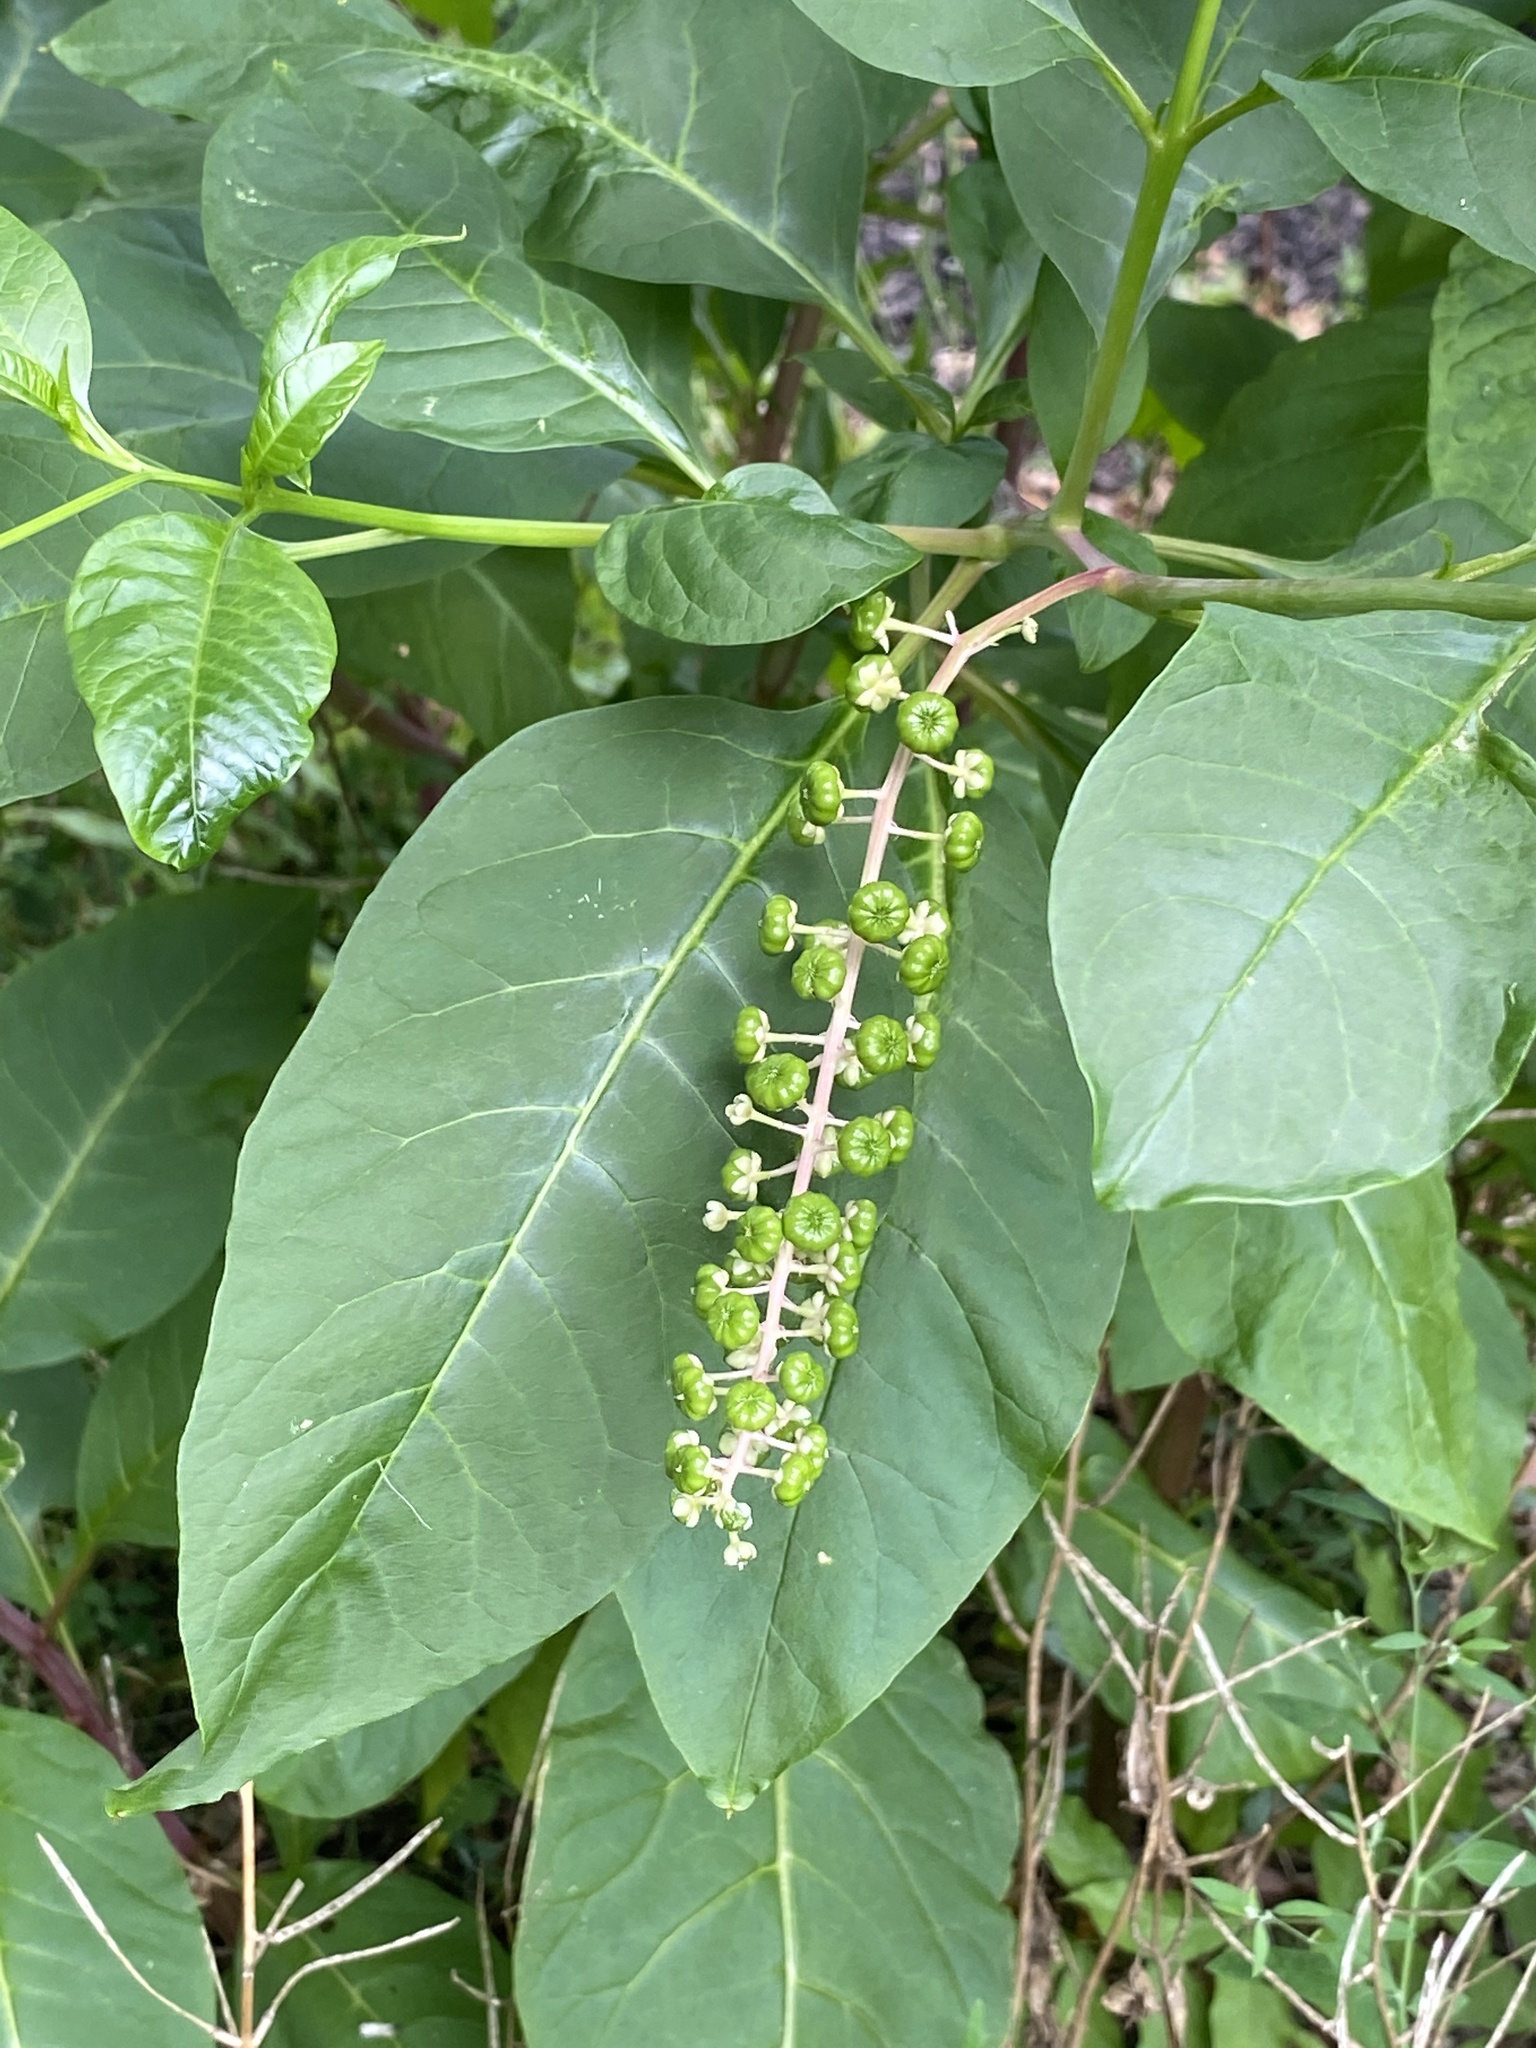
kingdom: Plantae
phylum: Tracheophyta
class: Magnoliopsida
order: Caryophyllales
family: Phytolaccaceae
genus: Phytolacca
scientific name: Phytolacca americana
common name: American pokeweed
